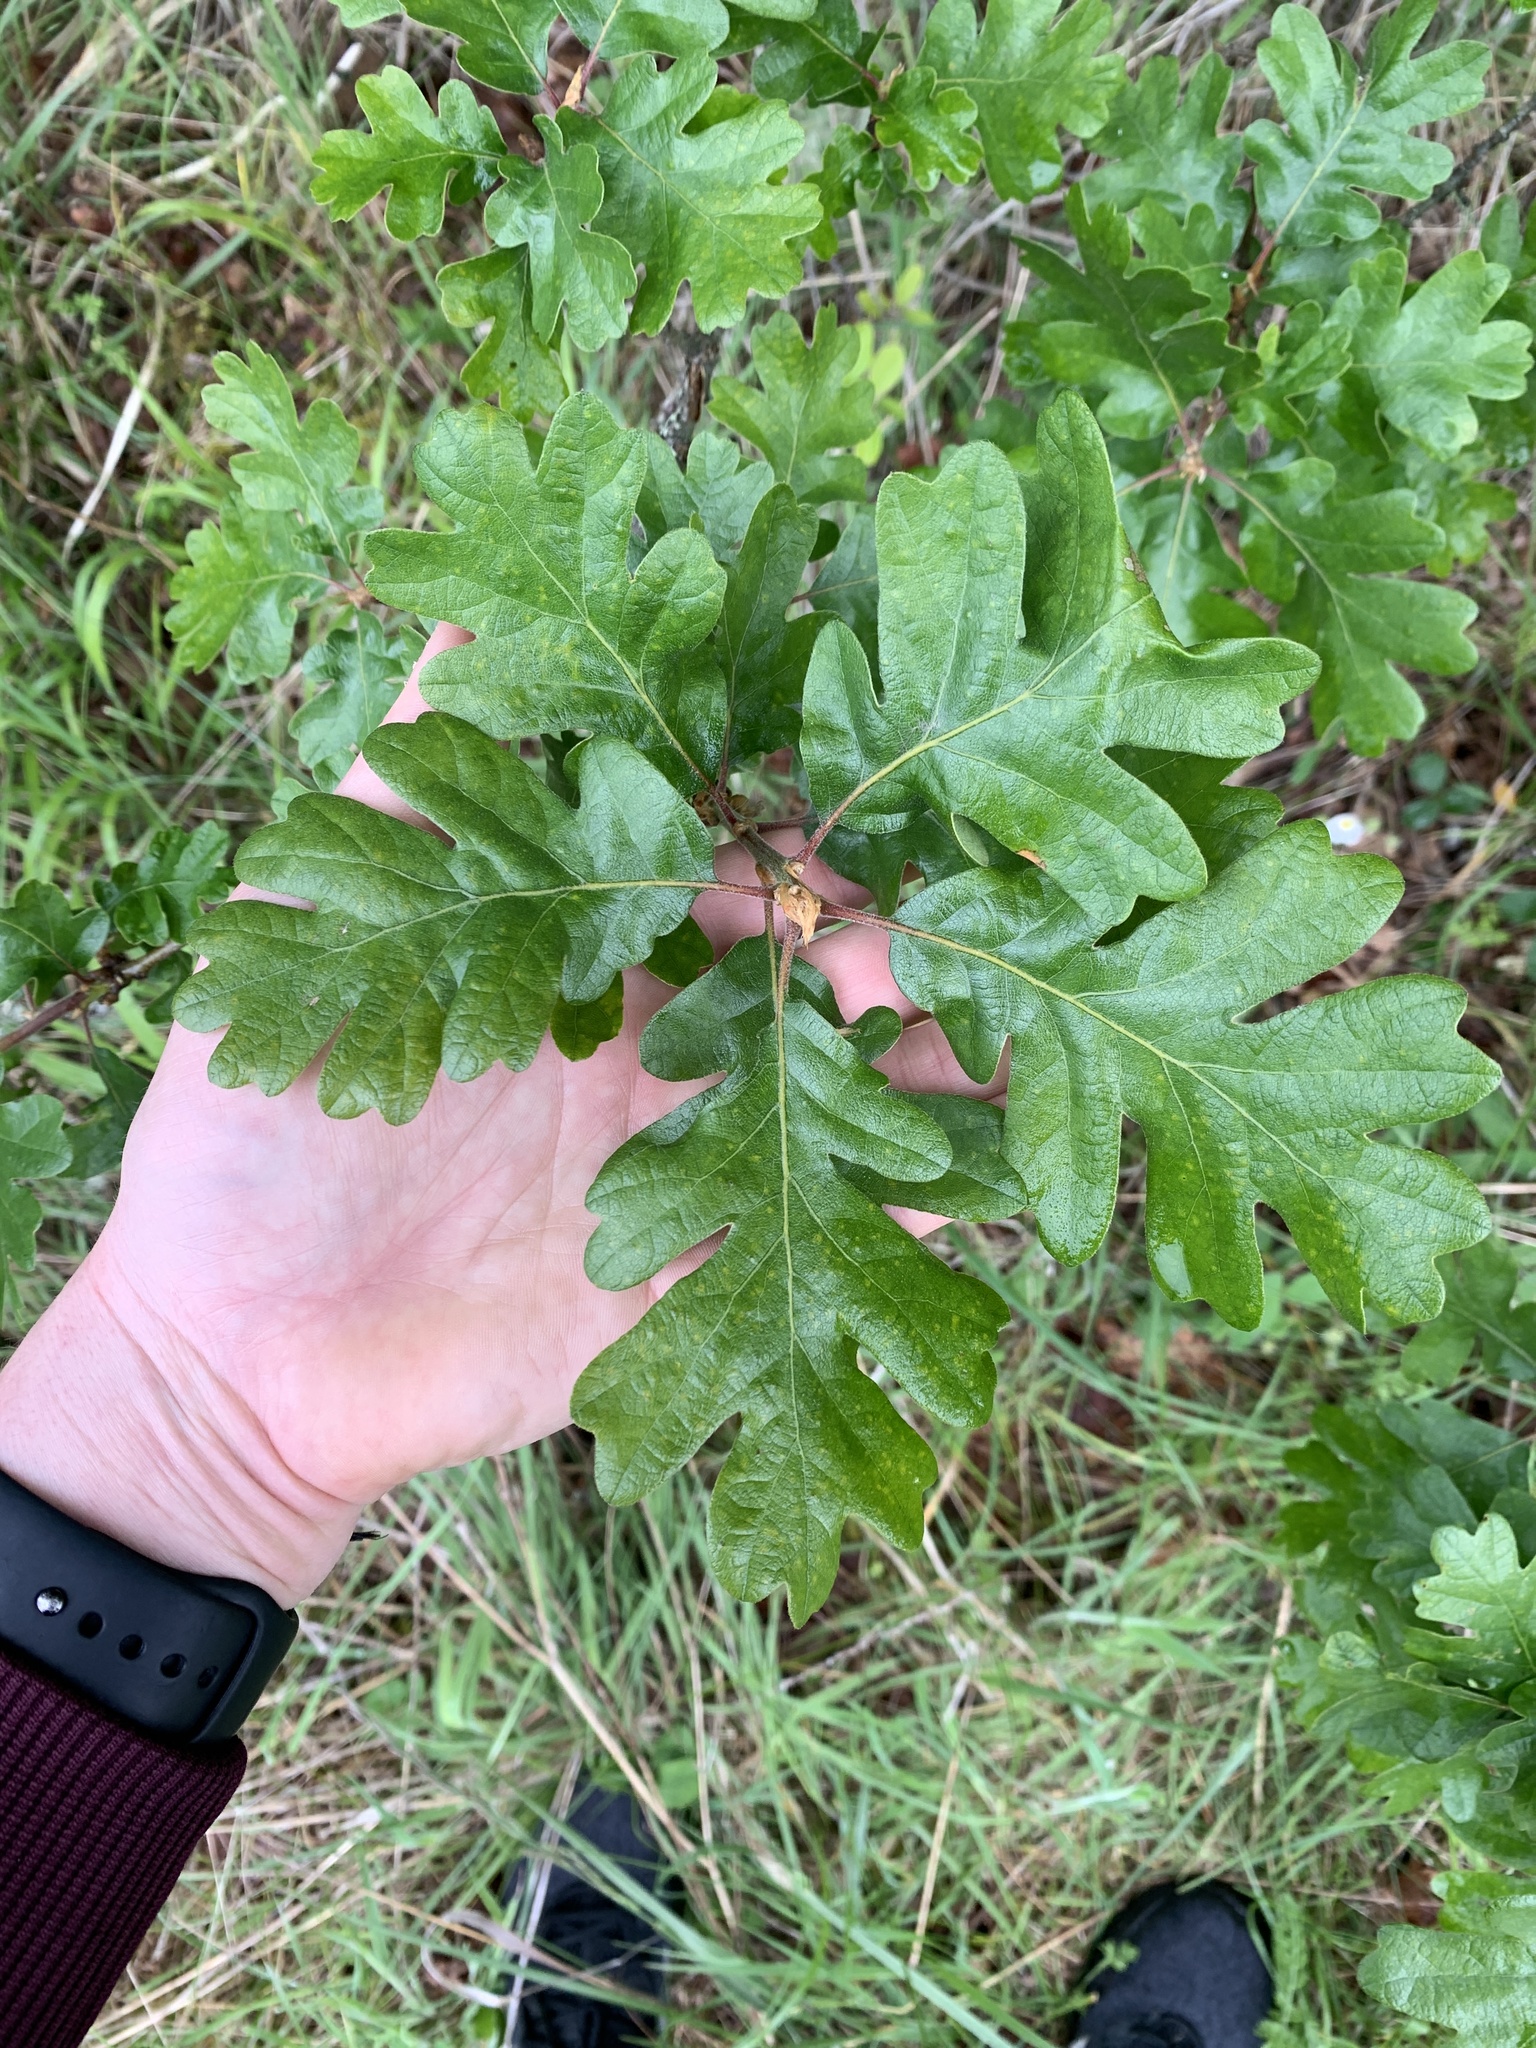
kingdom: Plantae
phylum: Tracheophyta
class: Magnoliopsida
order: Fagales
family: Fagaceae
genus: Quercus
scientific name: Quercus garryana
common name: Garry oak
